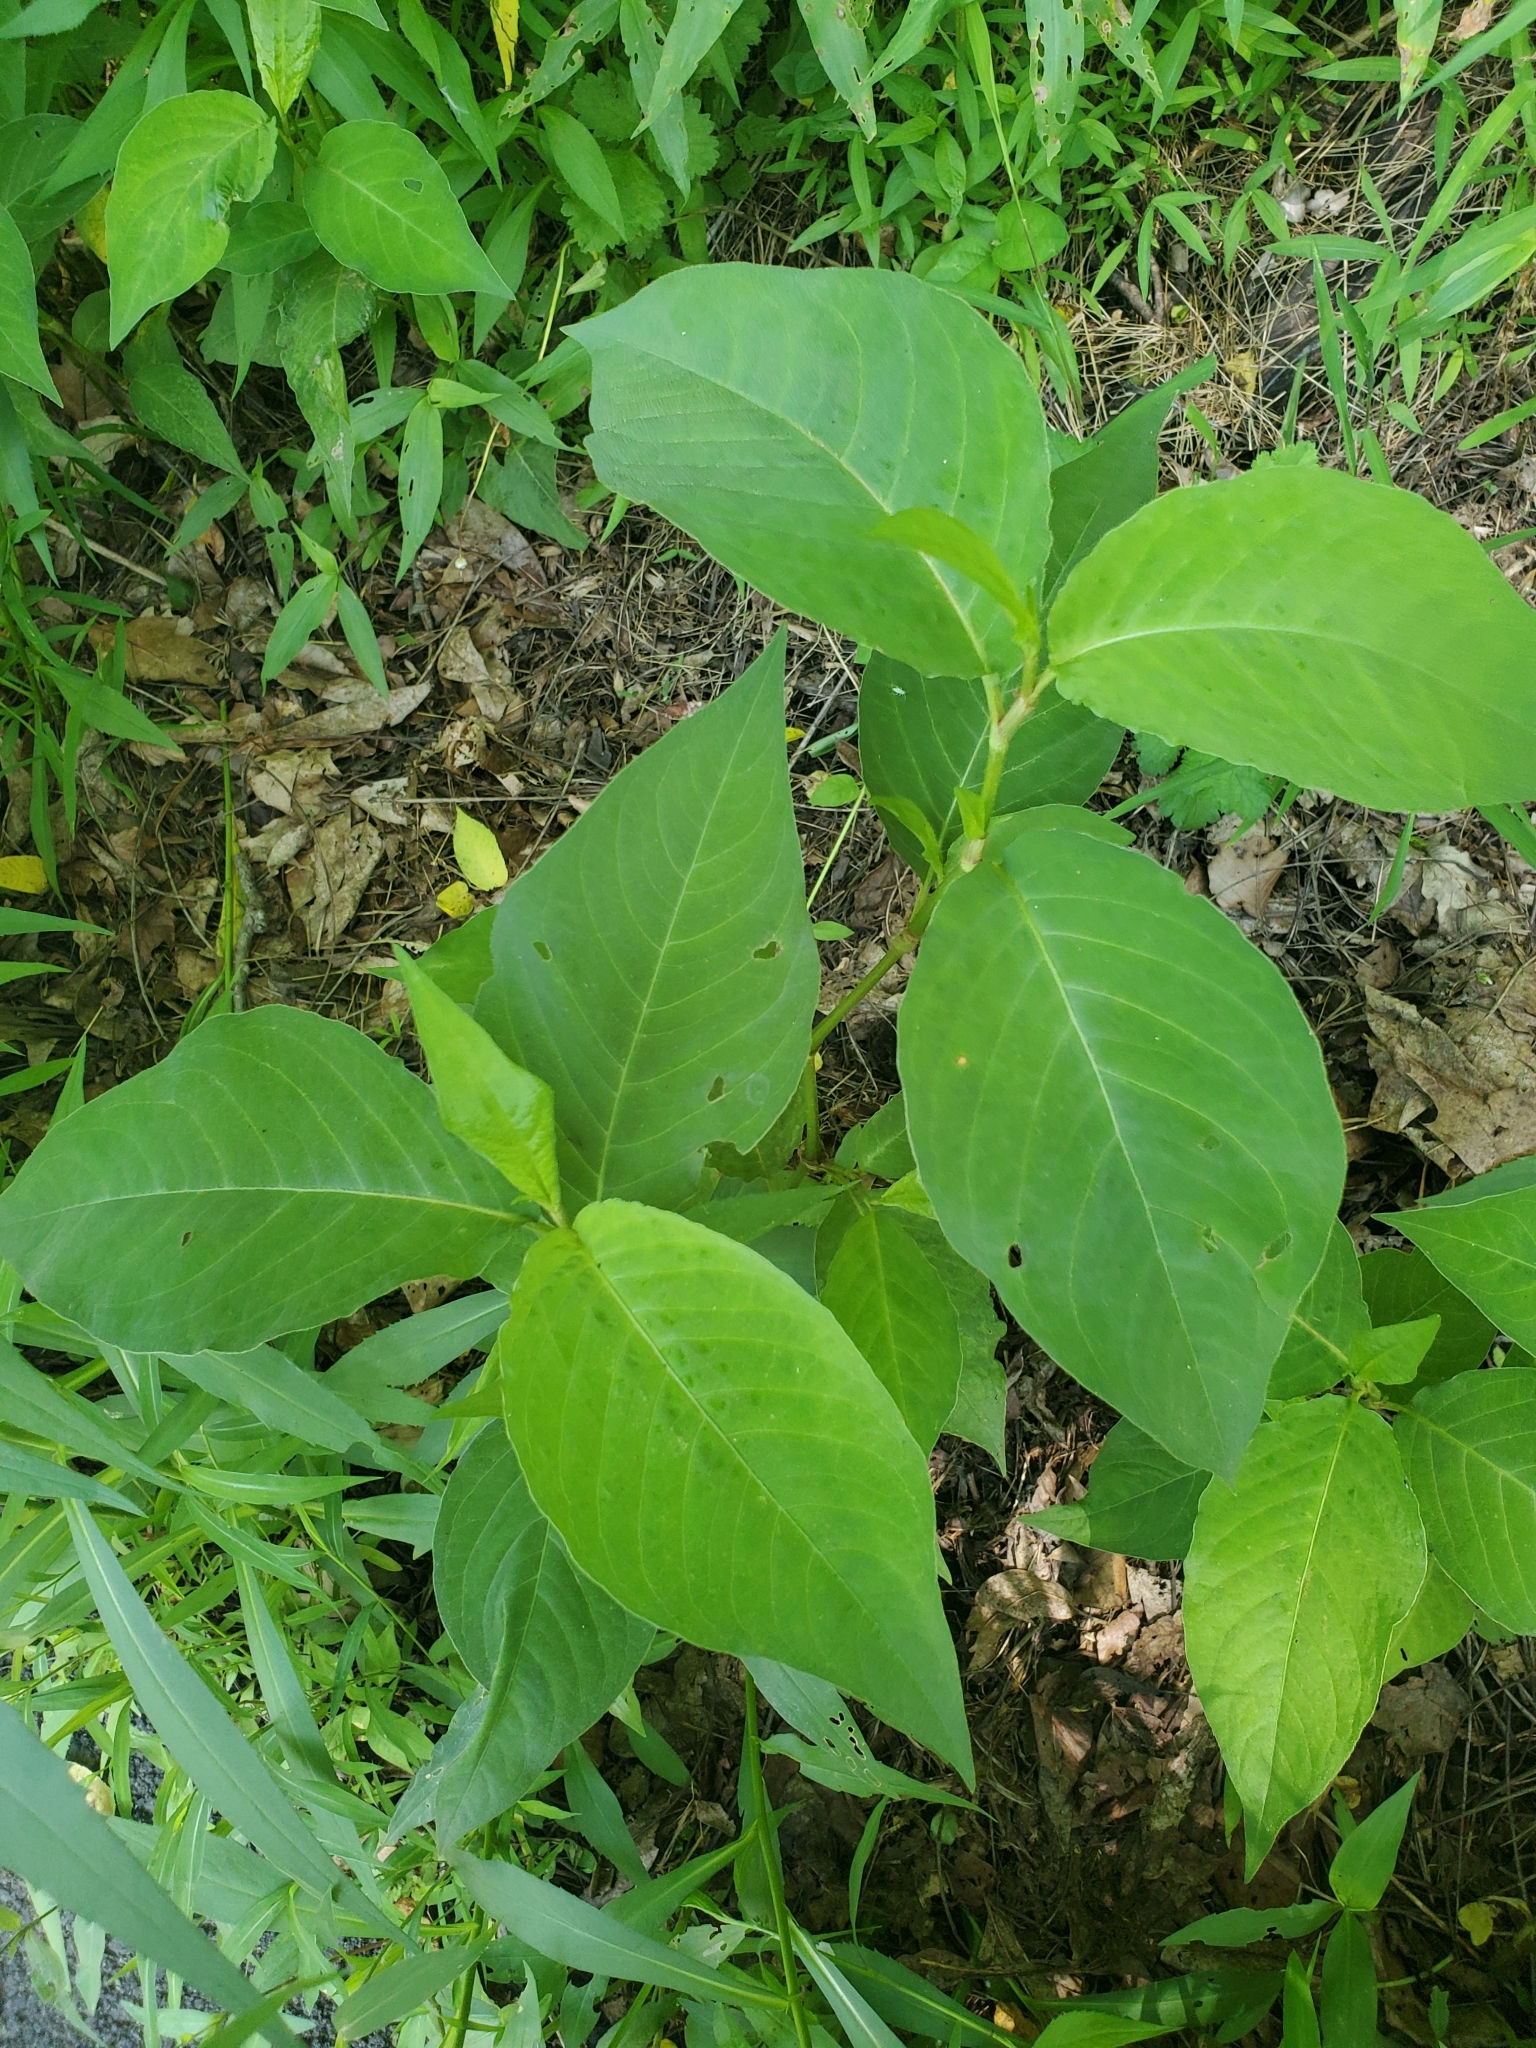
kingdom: Plantae
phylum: Tracheophyta
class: Magnoliopsida
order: Caryophyllales
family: Polygonaceae
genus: Persicaria
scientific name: Persicaria virginiana
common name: Jumpseed
